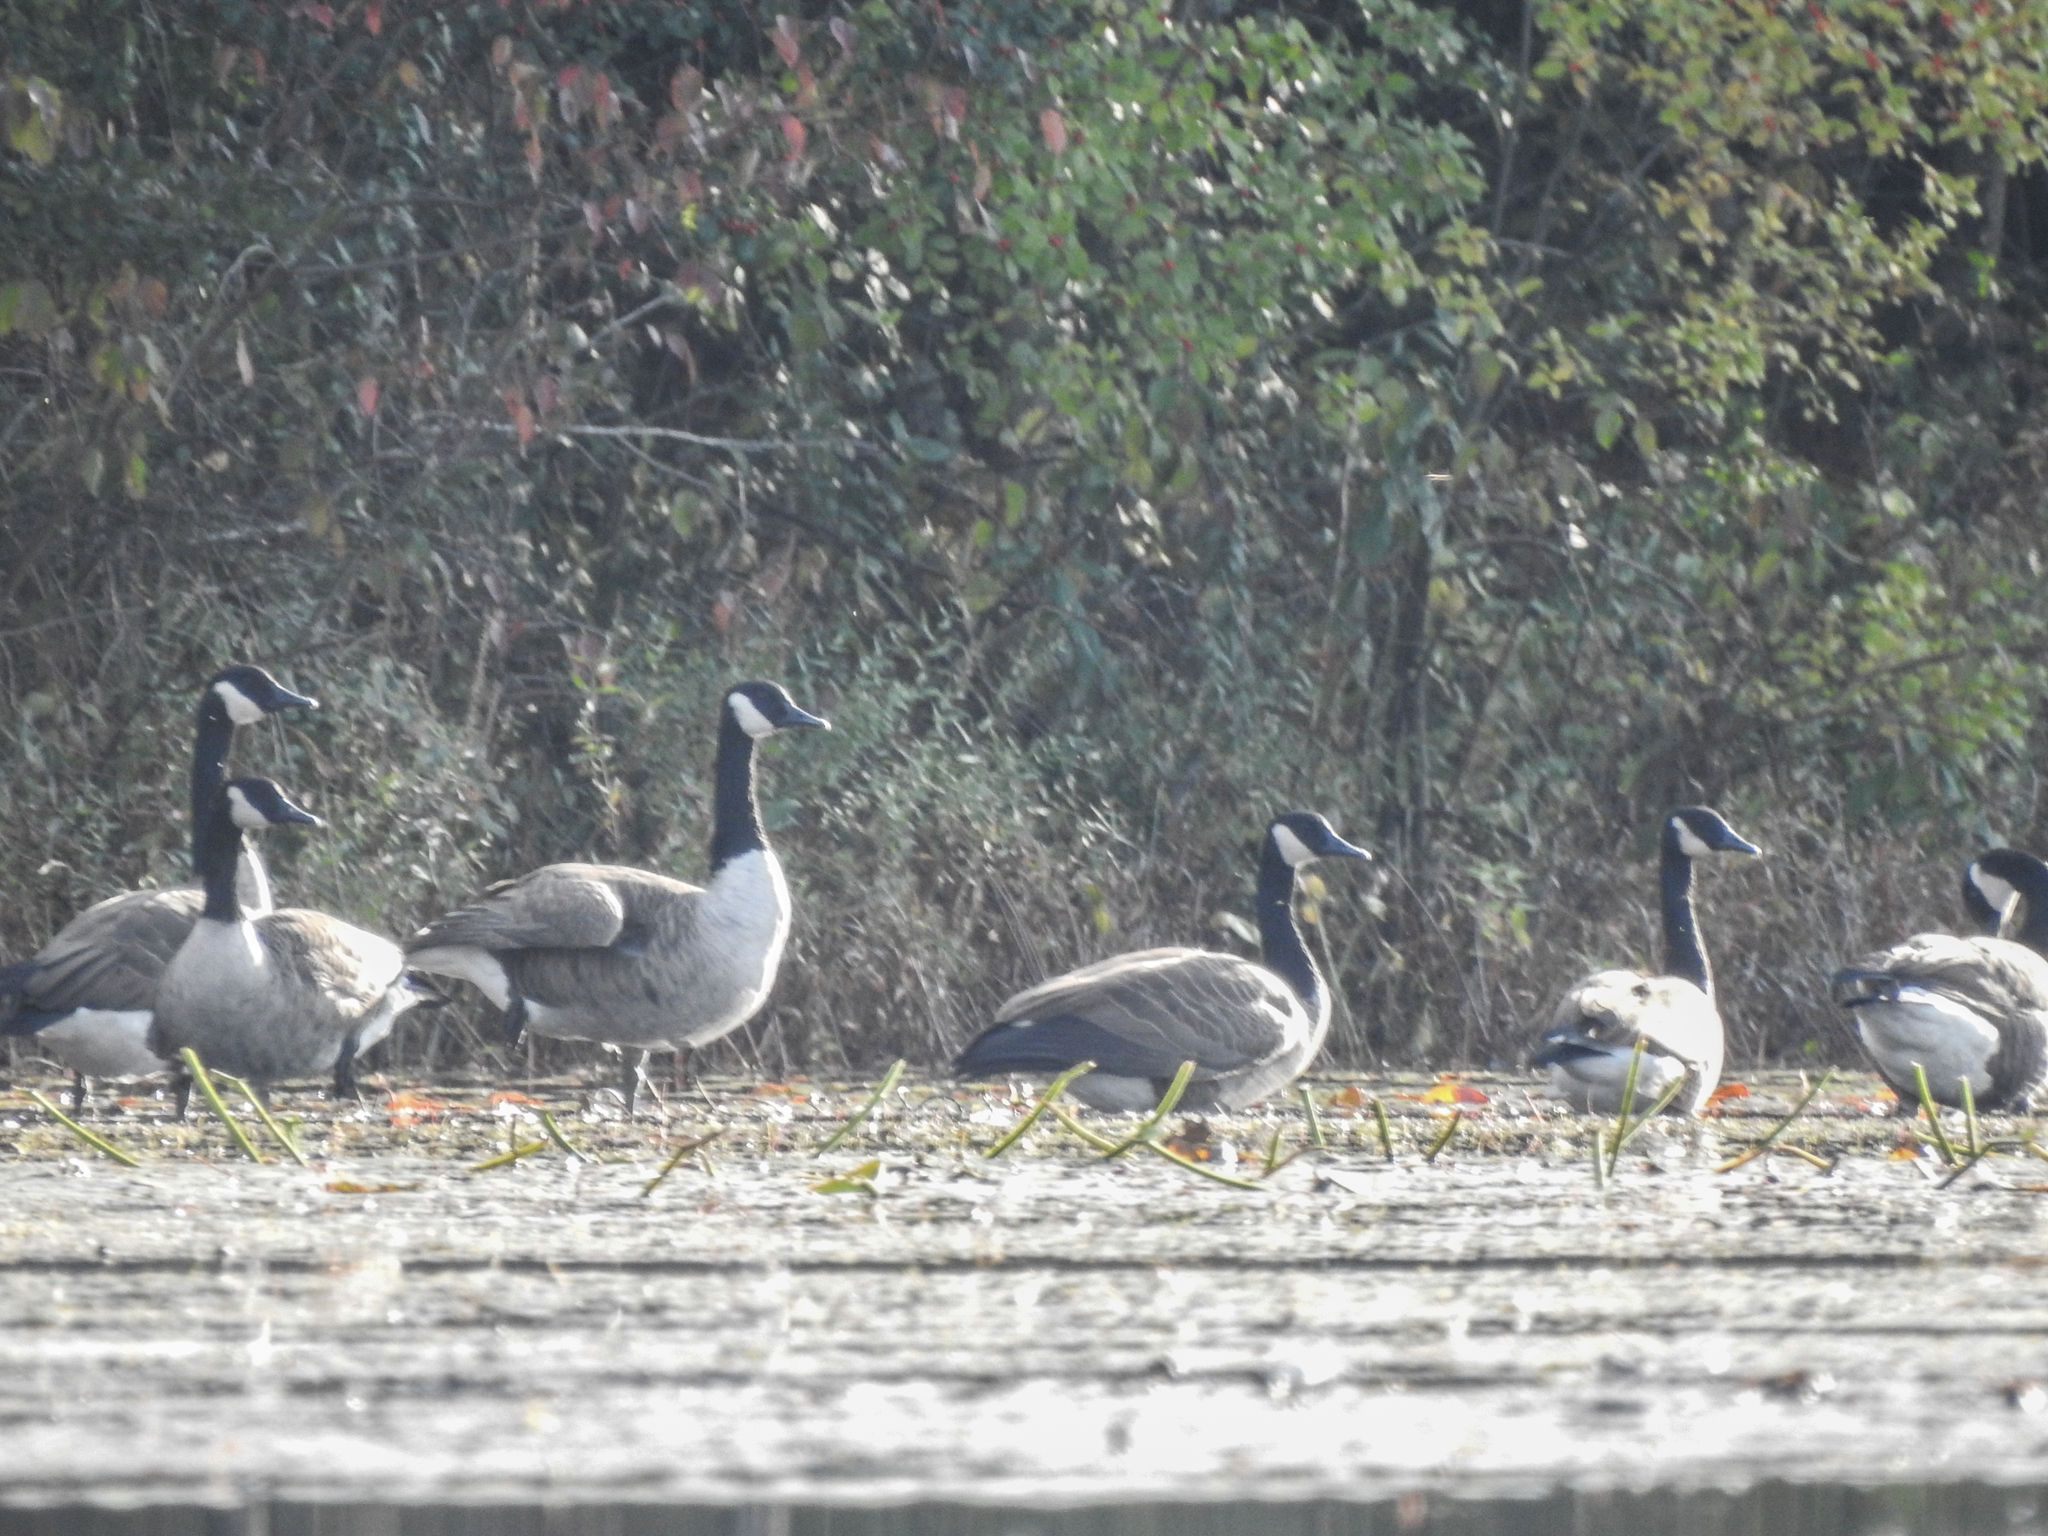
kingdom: Animalia
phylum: Chordata
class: Aves
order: Anseriformes
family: Anatidae
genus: Branta
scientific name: Branta canadensis
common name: Canada goose
